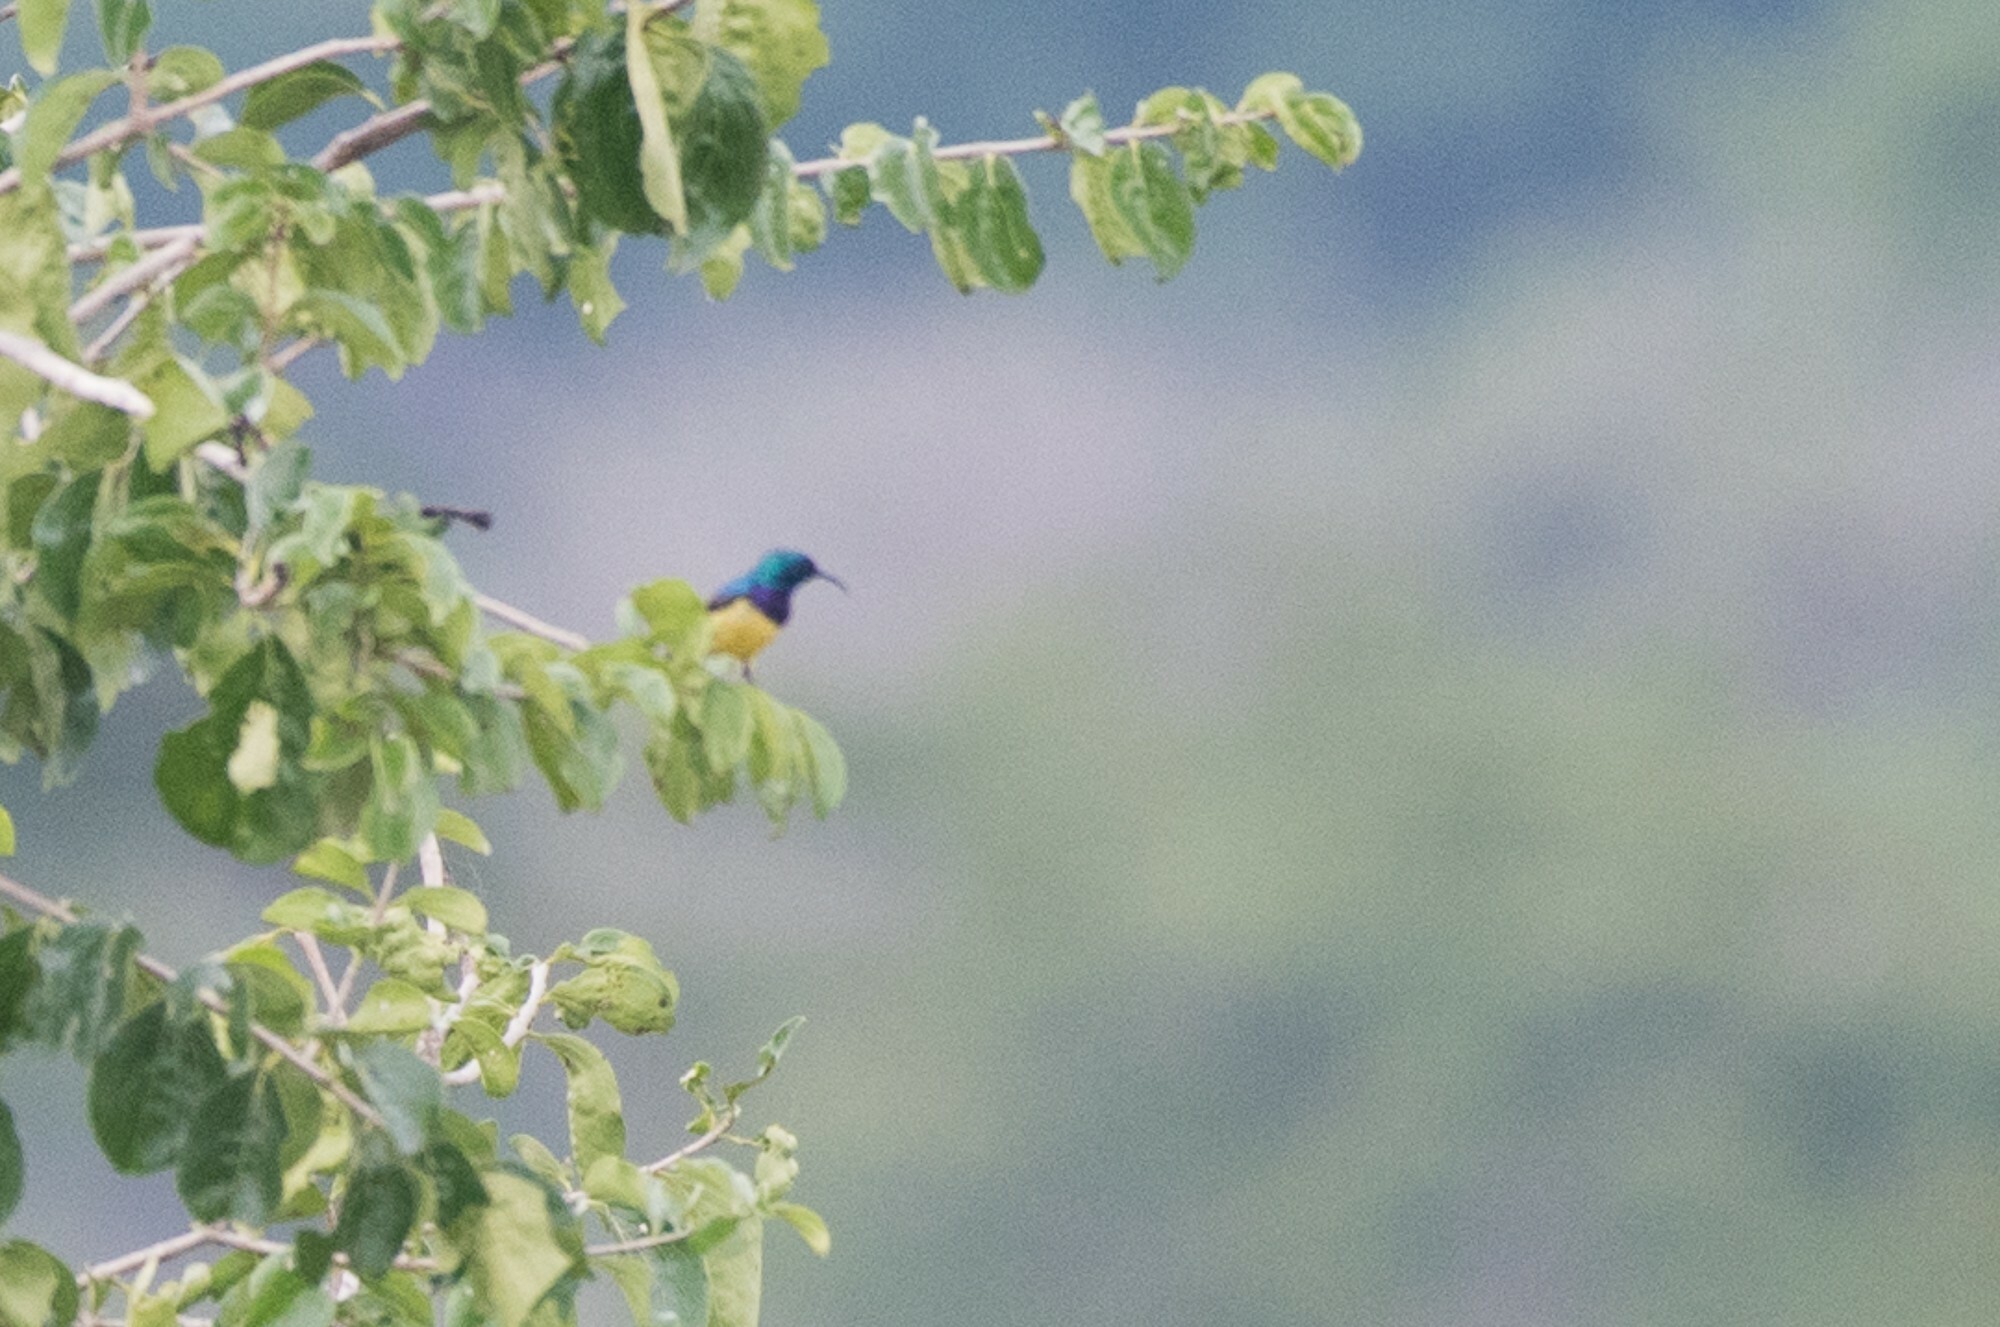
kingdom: Animalia
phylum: Chordata
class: Aves
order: Passeriformes
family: Nectariniidae
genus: Cinnyris
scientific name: Cinnyris venustus
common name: Variable sunbird
